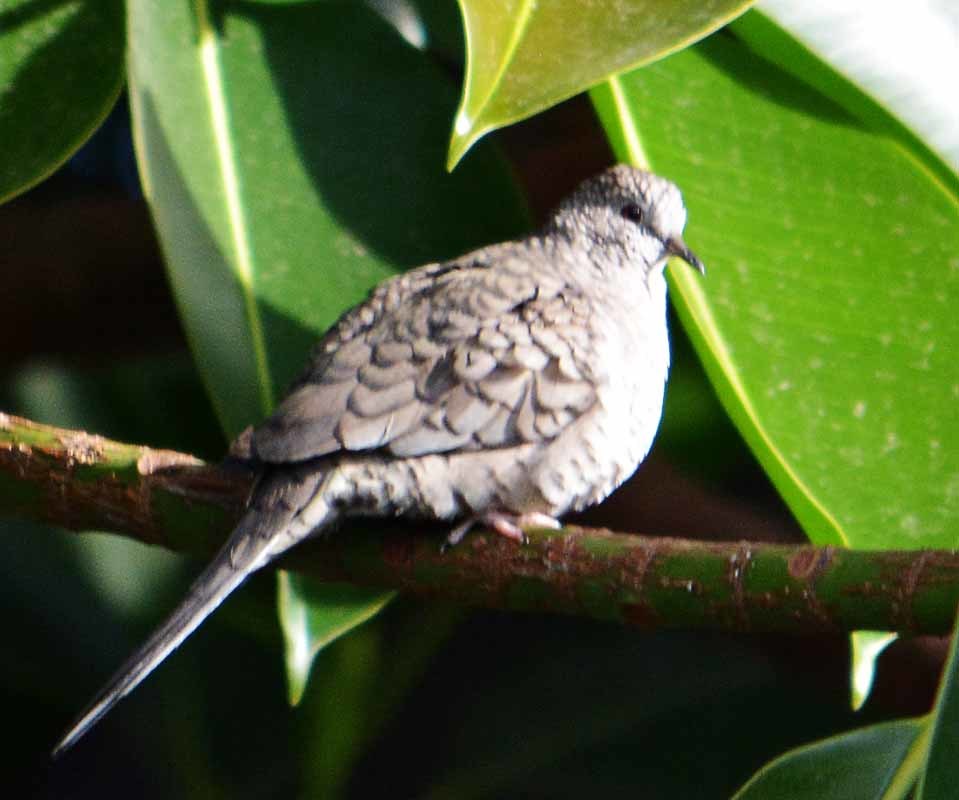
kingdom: Animalia
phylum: Chordata
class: Aves
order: Columbiformes
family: Columbidae
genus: Columbina
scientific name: Columbina inca
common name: Inca dove
